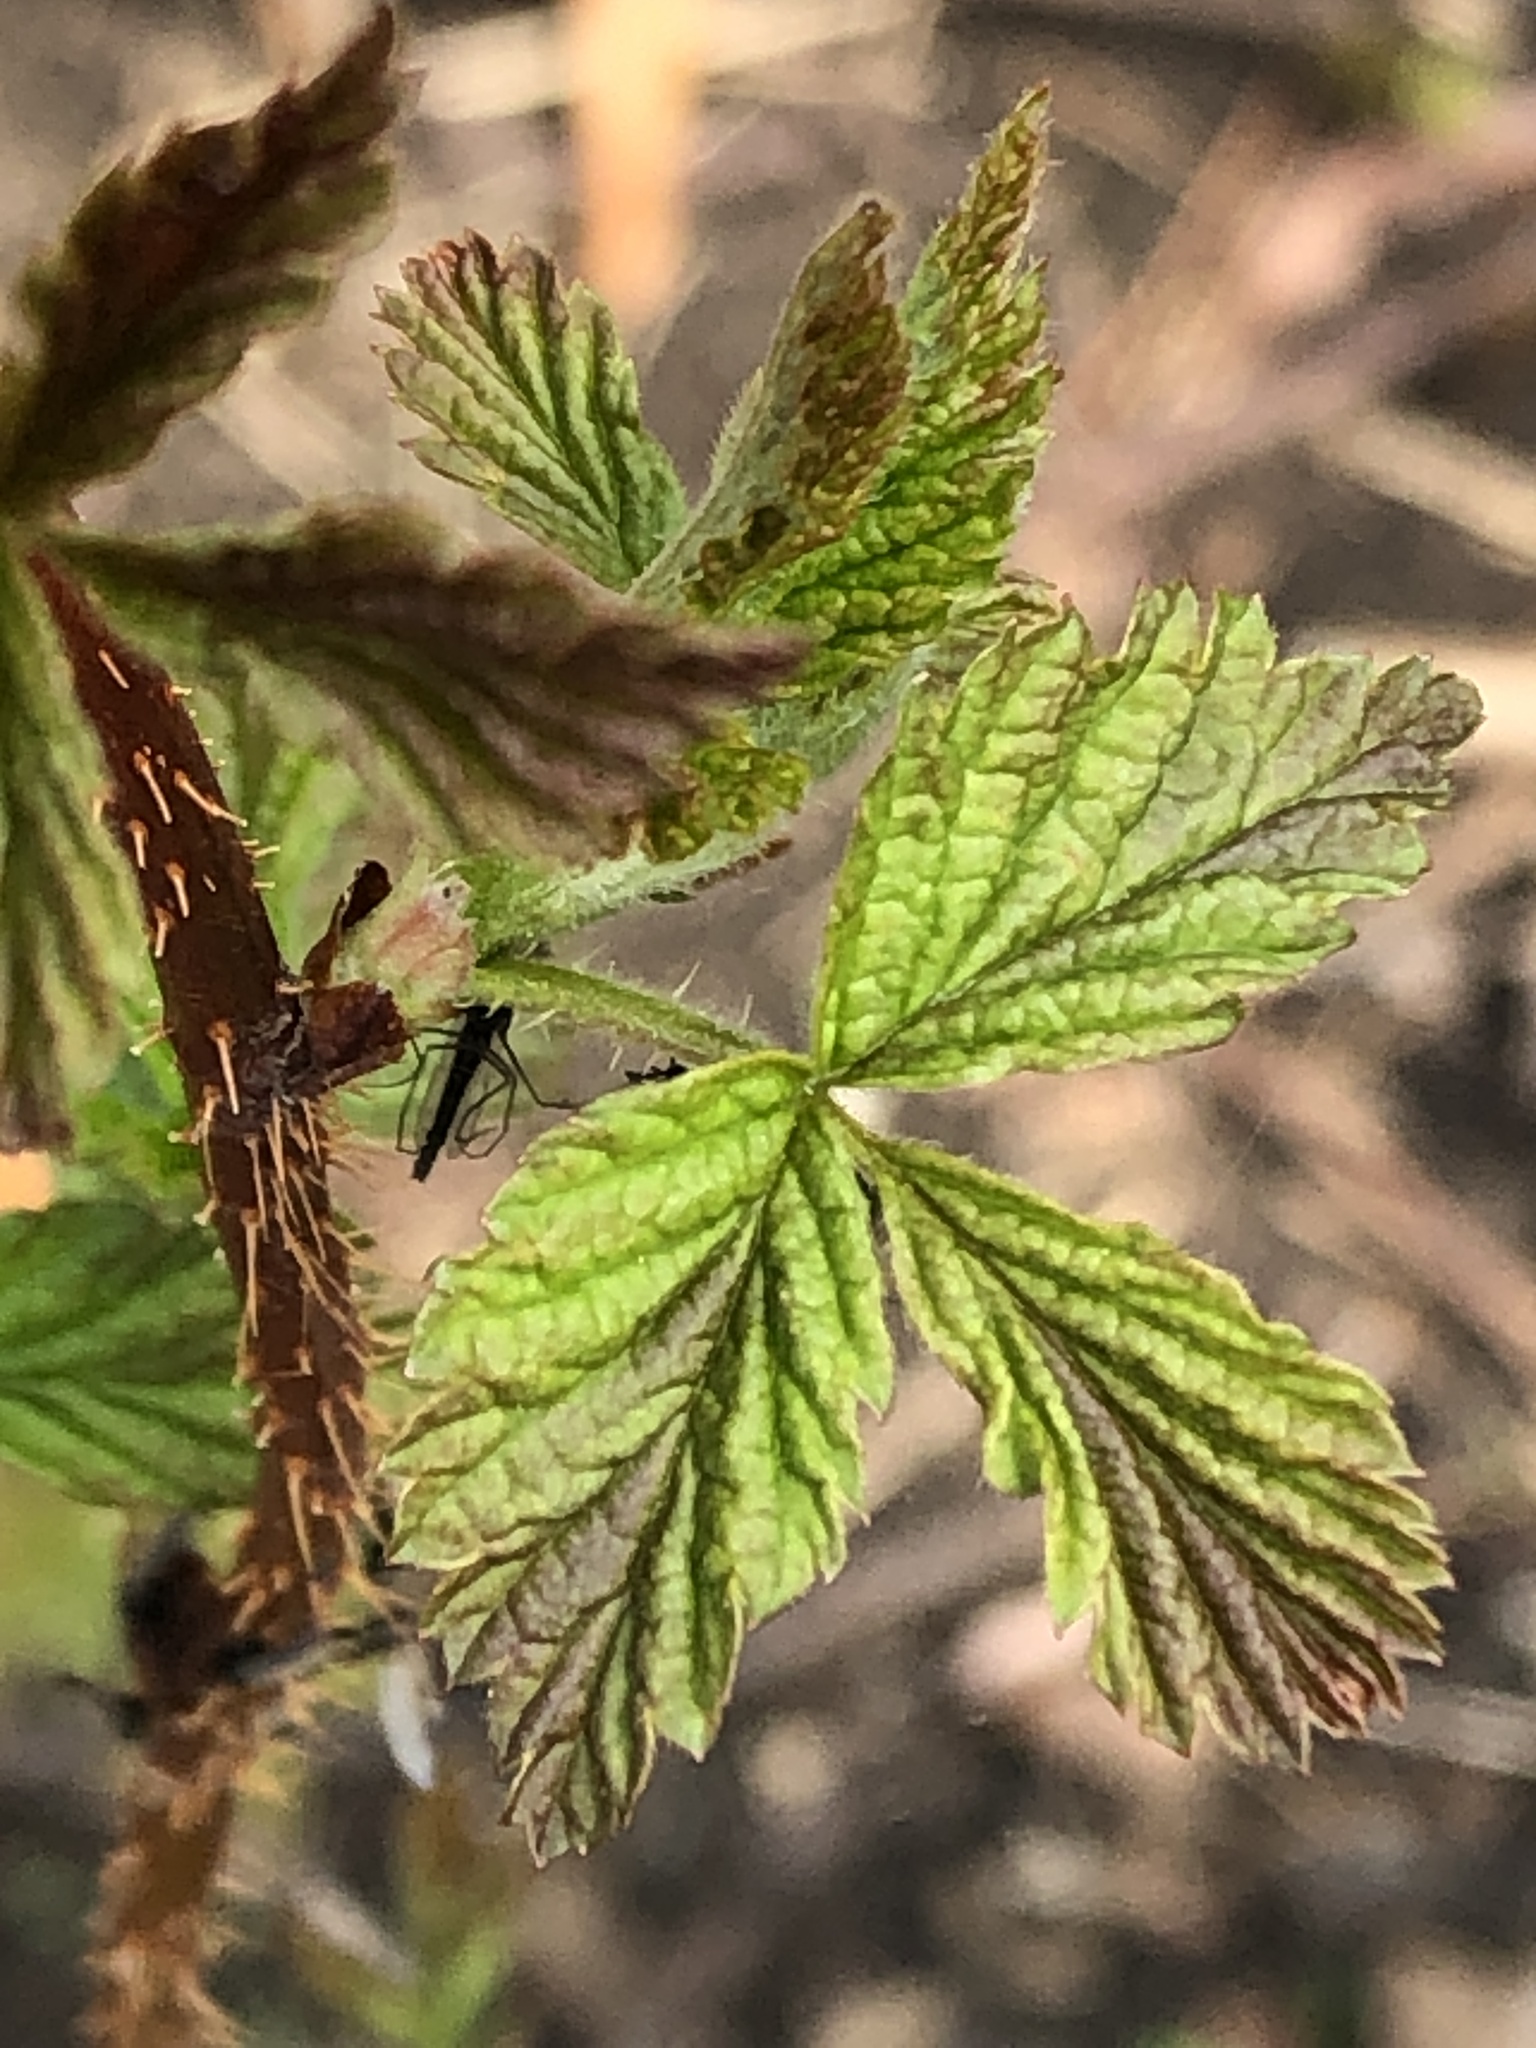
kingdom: Plantae
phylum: Tracheophyta
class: Magnoliopsida
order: Rosales
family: Rosaceae
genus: Rubus
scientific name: Rubus idaeus
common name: Raspberry
